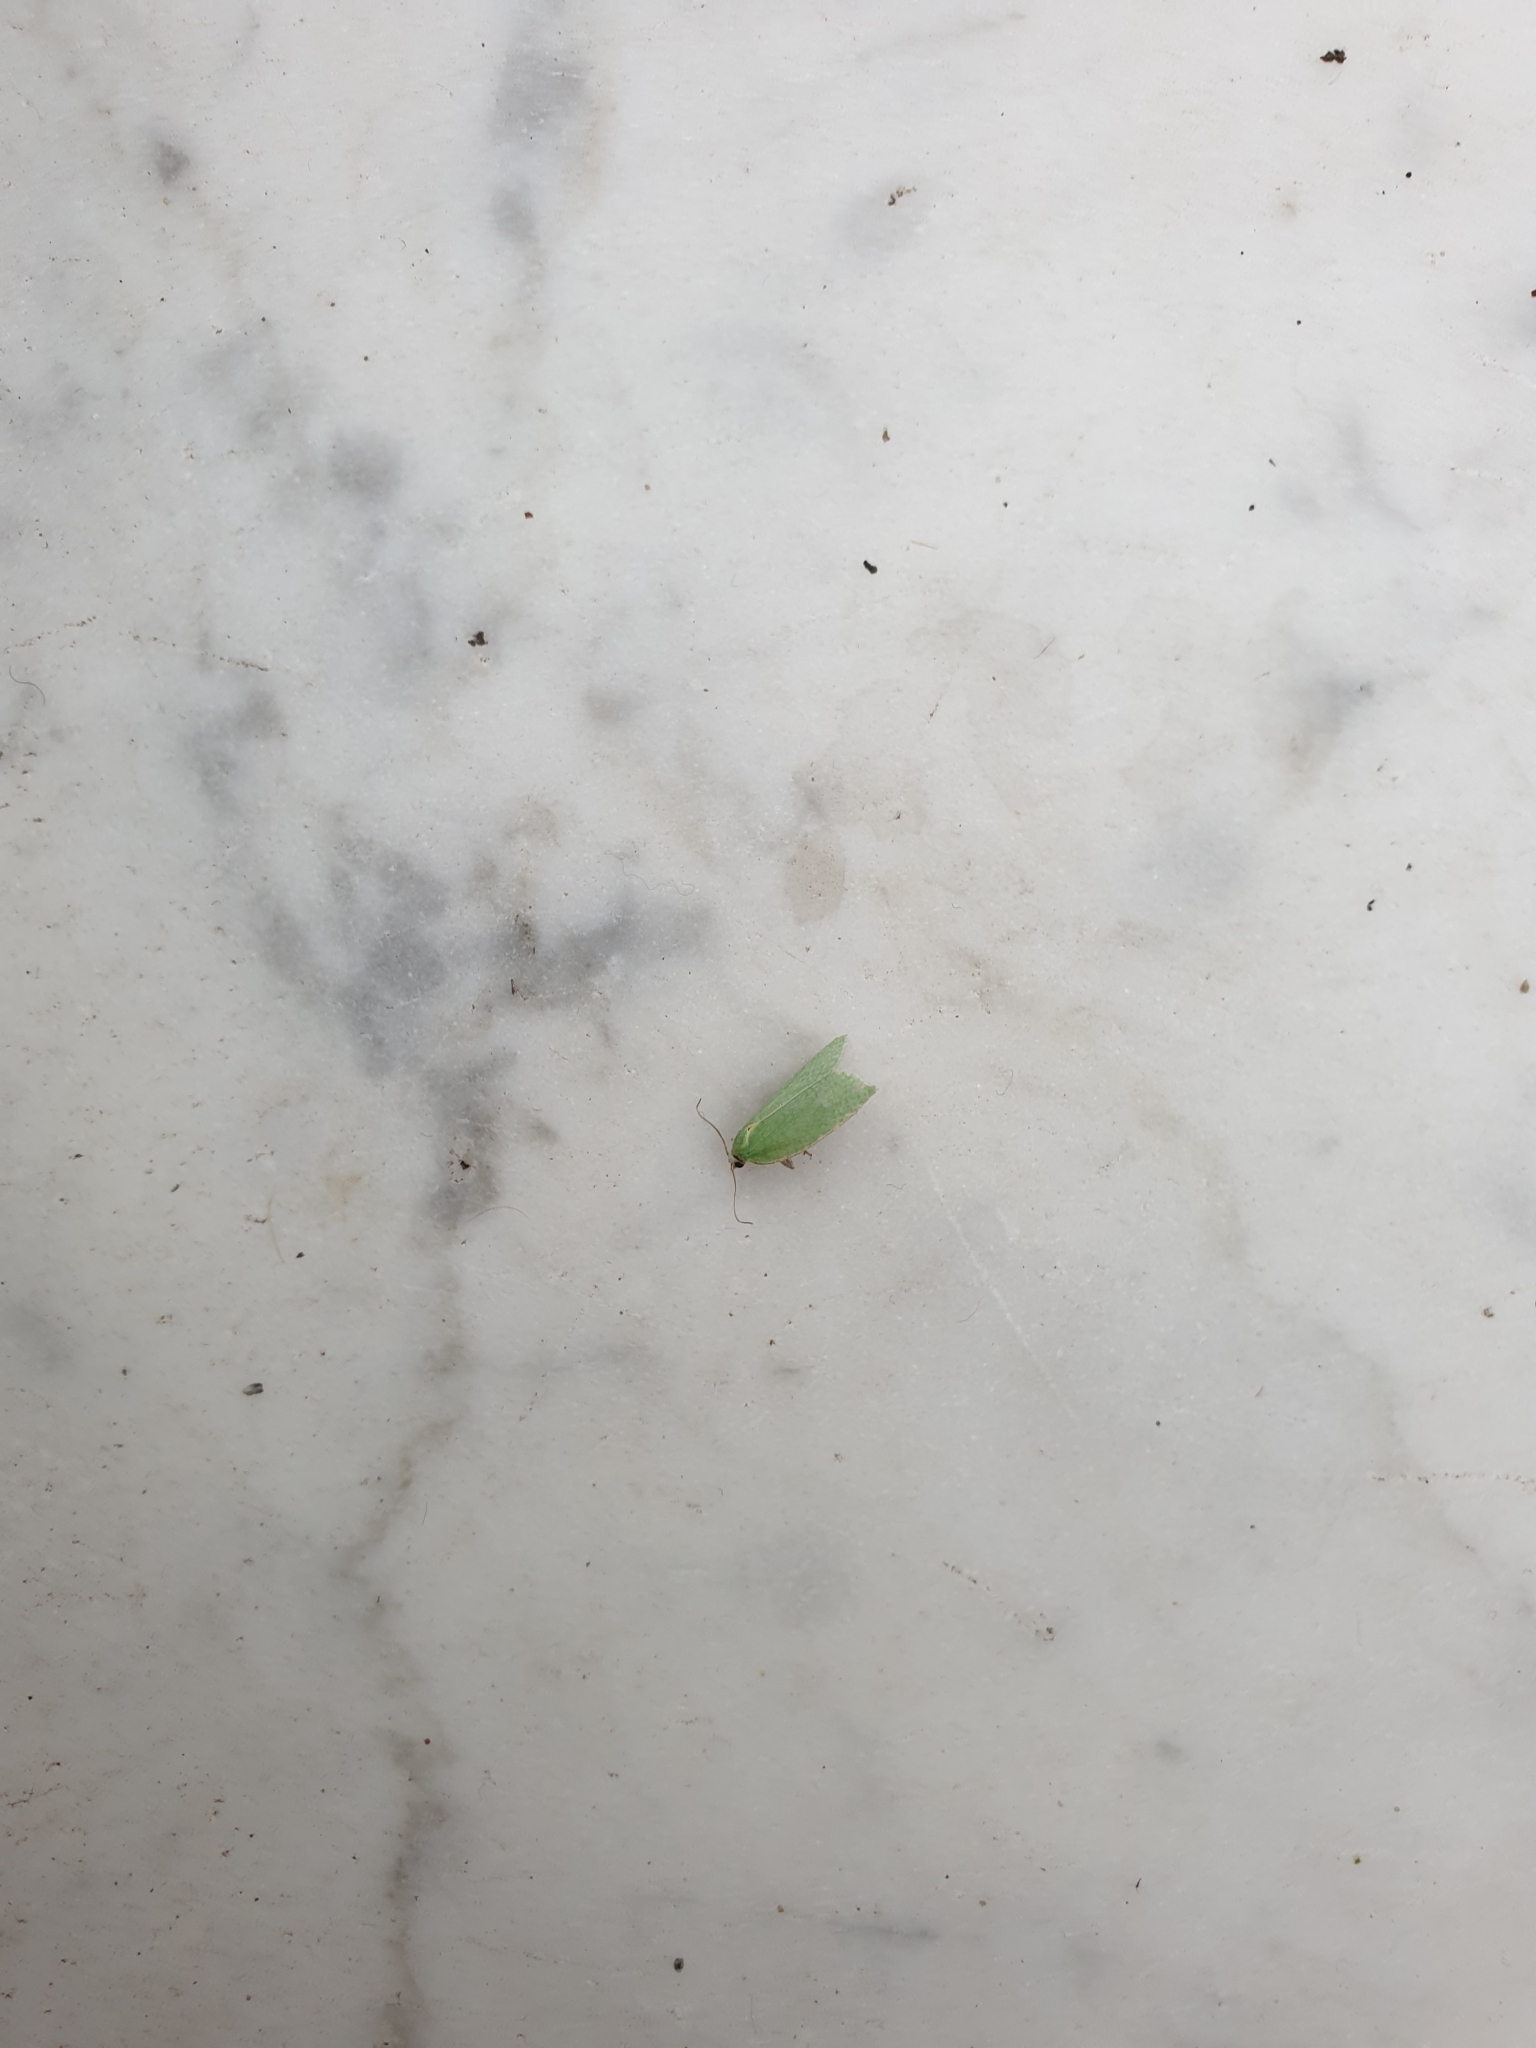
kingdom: Animalia
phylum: Arthropoda
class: Insecta
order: Lepidoptera
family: Tortricidae
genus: Tortrix
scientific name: Tortrix viridana
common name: Green oak tortrix
